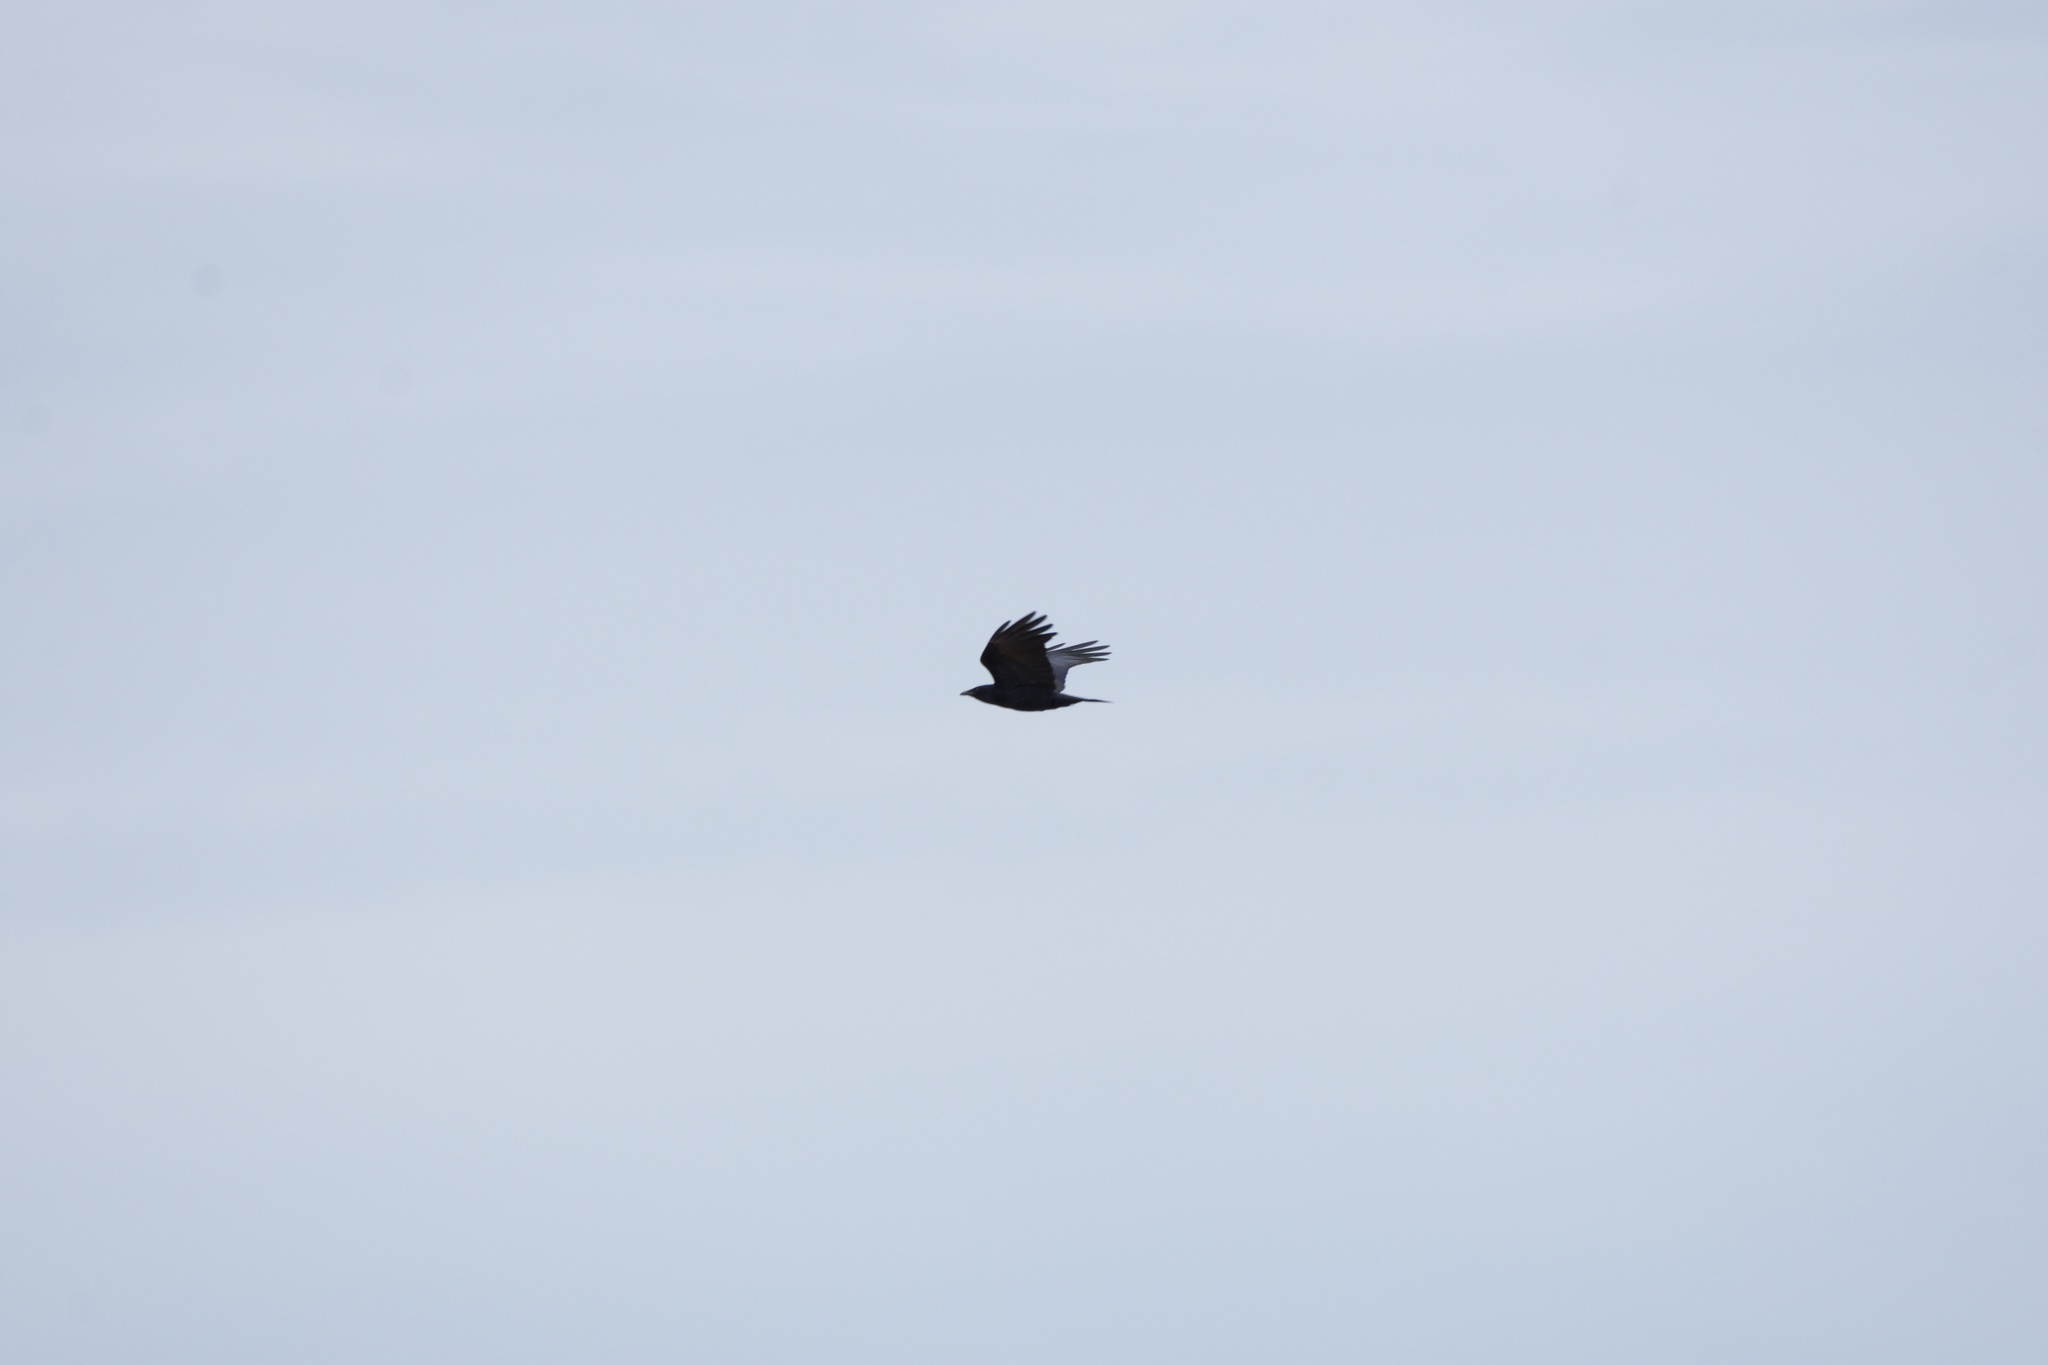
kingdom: Animalia
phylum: Chordata
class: Aves
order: Passeriformes
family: Corvidae
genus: Corvus
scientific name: Corvus ossifragus
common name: Fish crow
